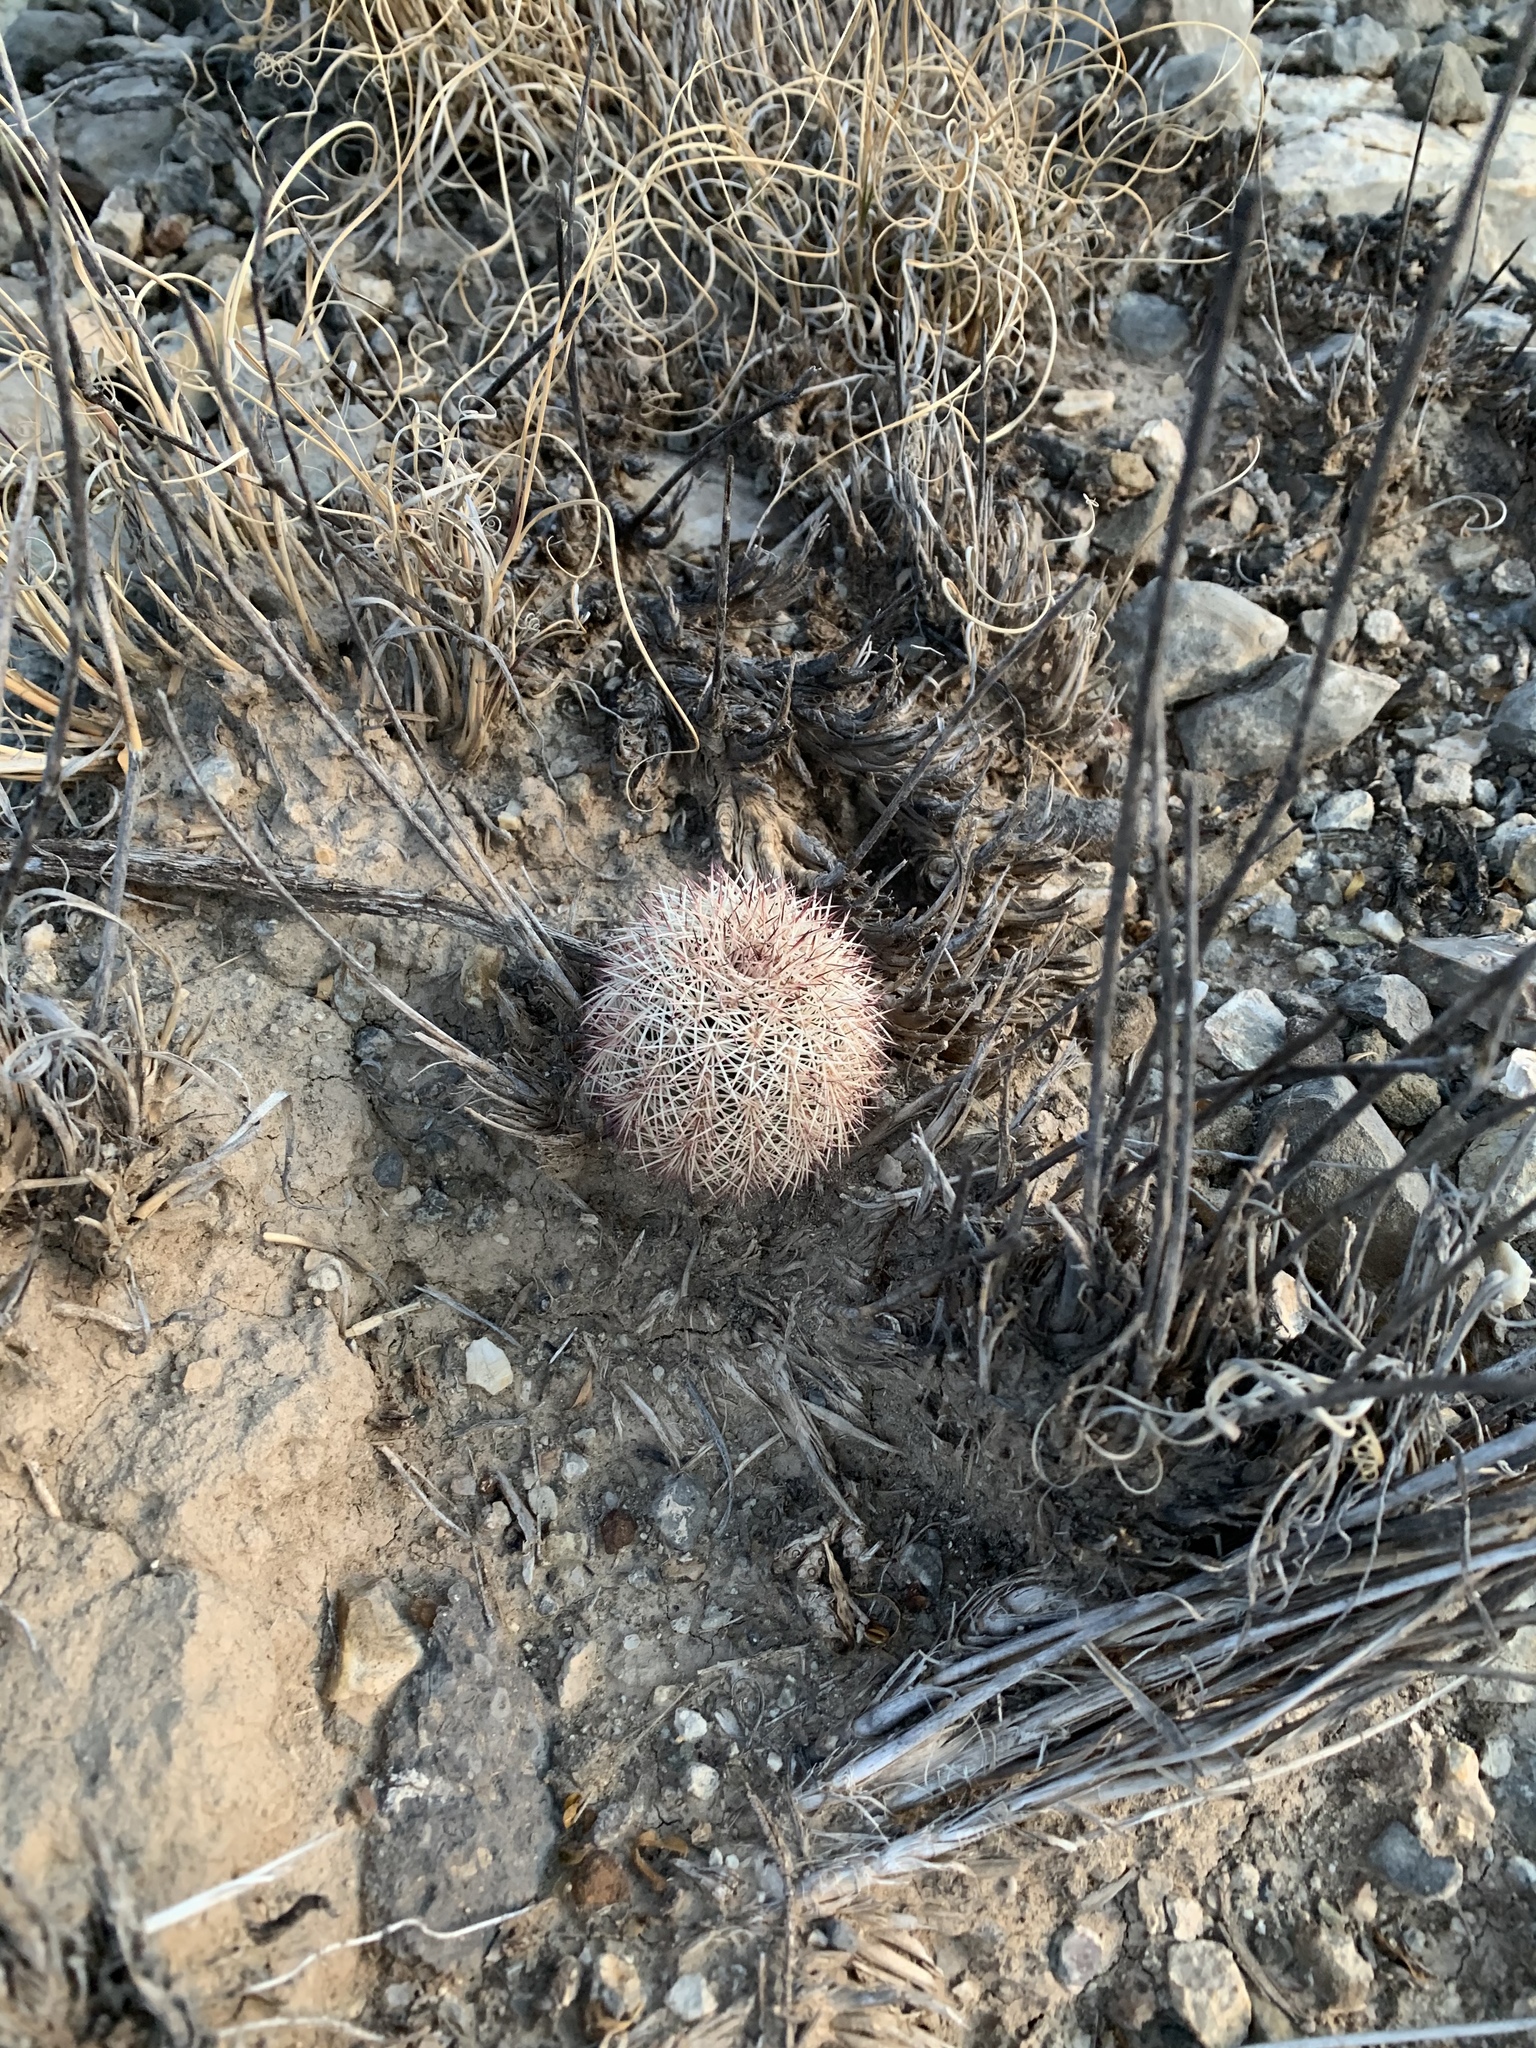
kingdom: Plantae
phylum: Tracheophyta
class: Magnoliopsida
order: Caryophyllales
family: Cactaceae
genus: Echinocereus
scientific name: Echinocereus dasyacanthus
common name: Spiny hedgehog cactus
